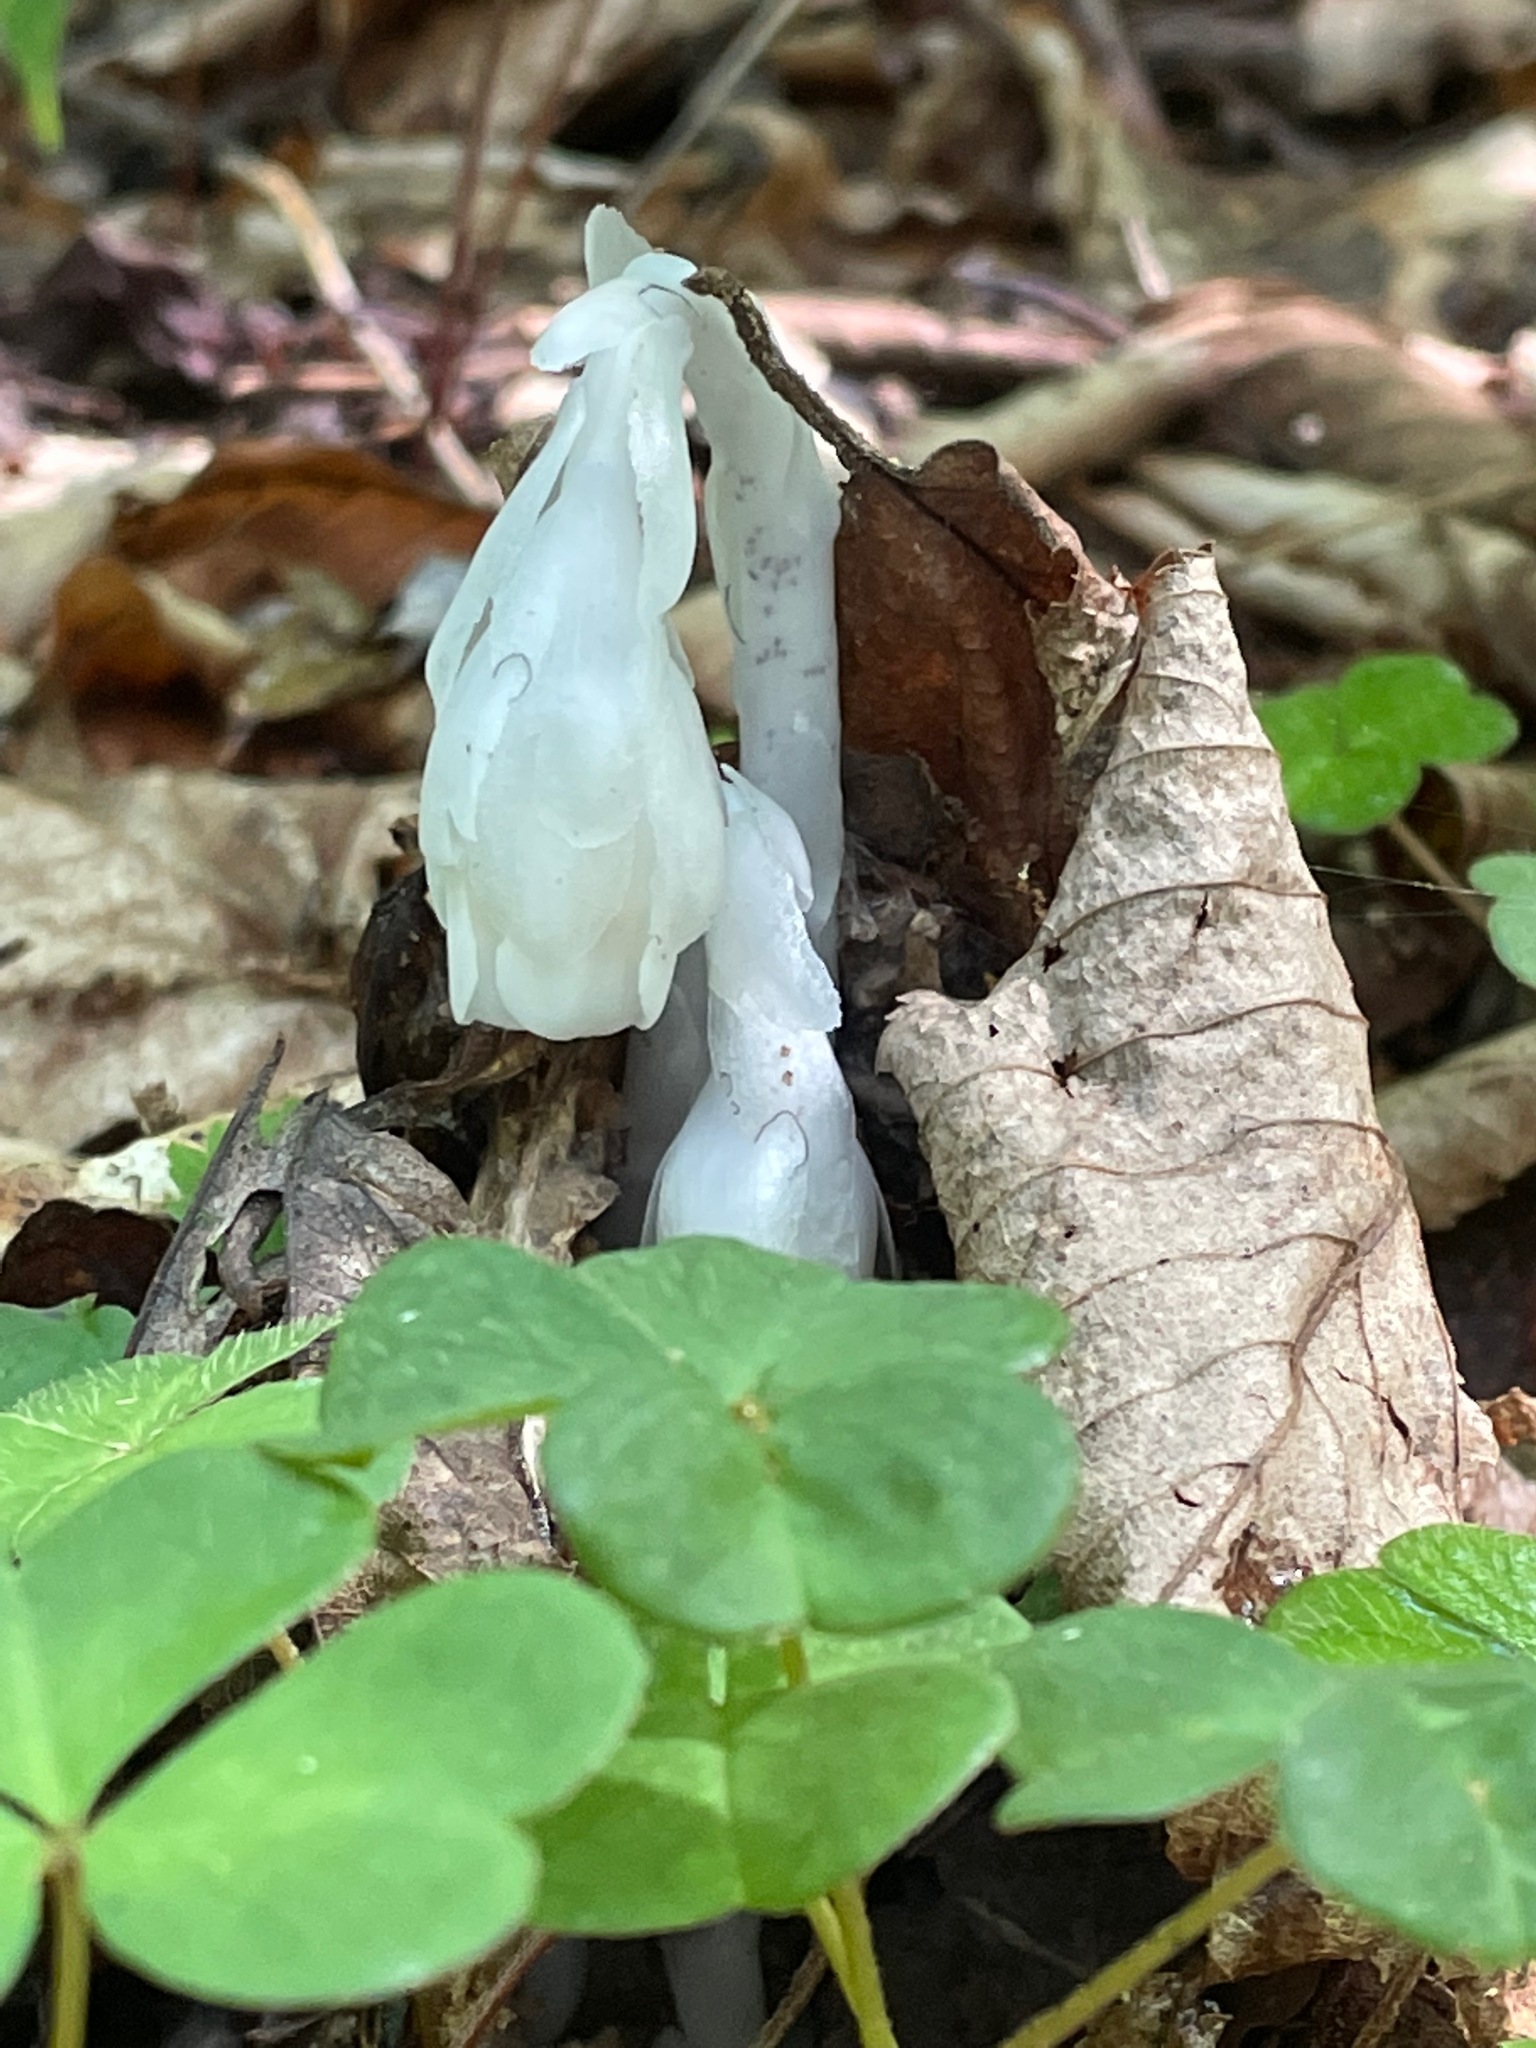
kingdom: Plantae
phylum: Tracheophyta
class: Magnoliopsida
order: Ericales
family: Ericaceae
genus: Monotropa
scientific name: Monotropa uniflora
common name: Convulsion root
